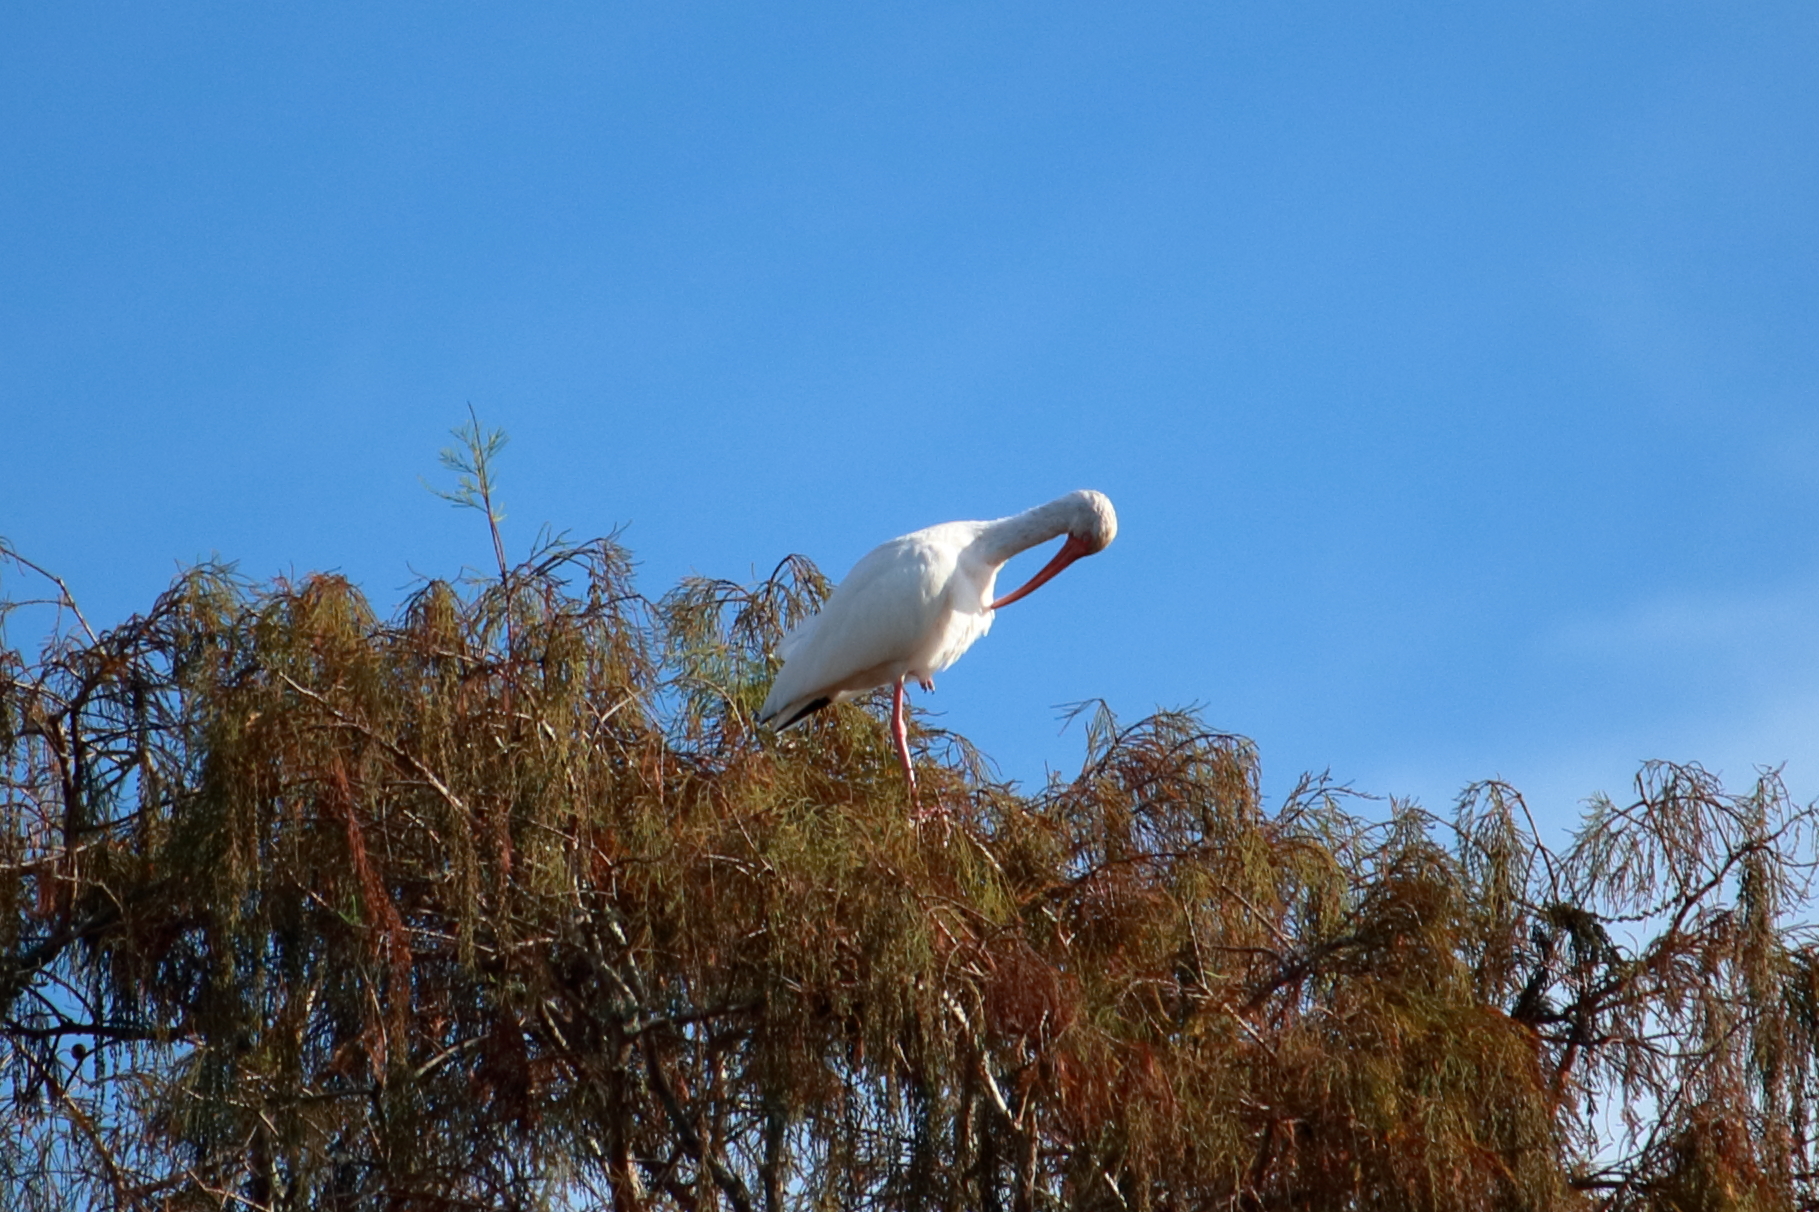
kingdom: Animalia
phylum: Chordata
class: Aves
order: Pelecaniformes
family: Threskiornithidae
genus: Eudocimus
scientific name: Eudocimus albus
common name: White ibis
